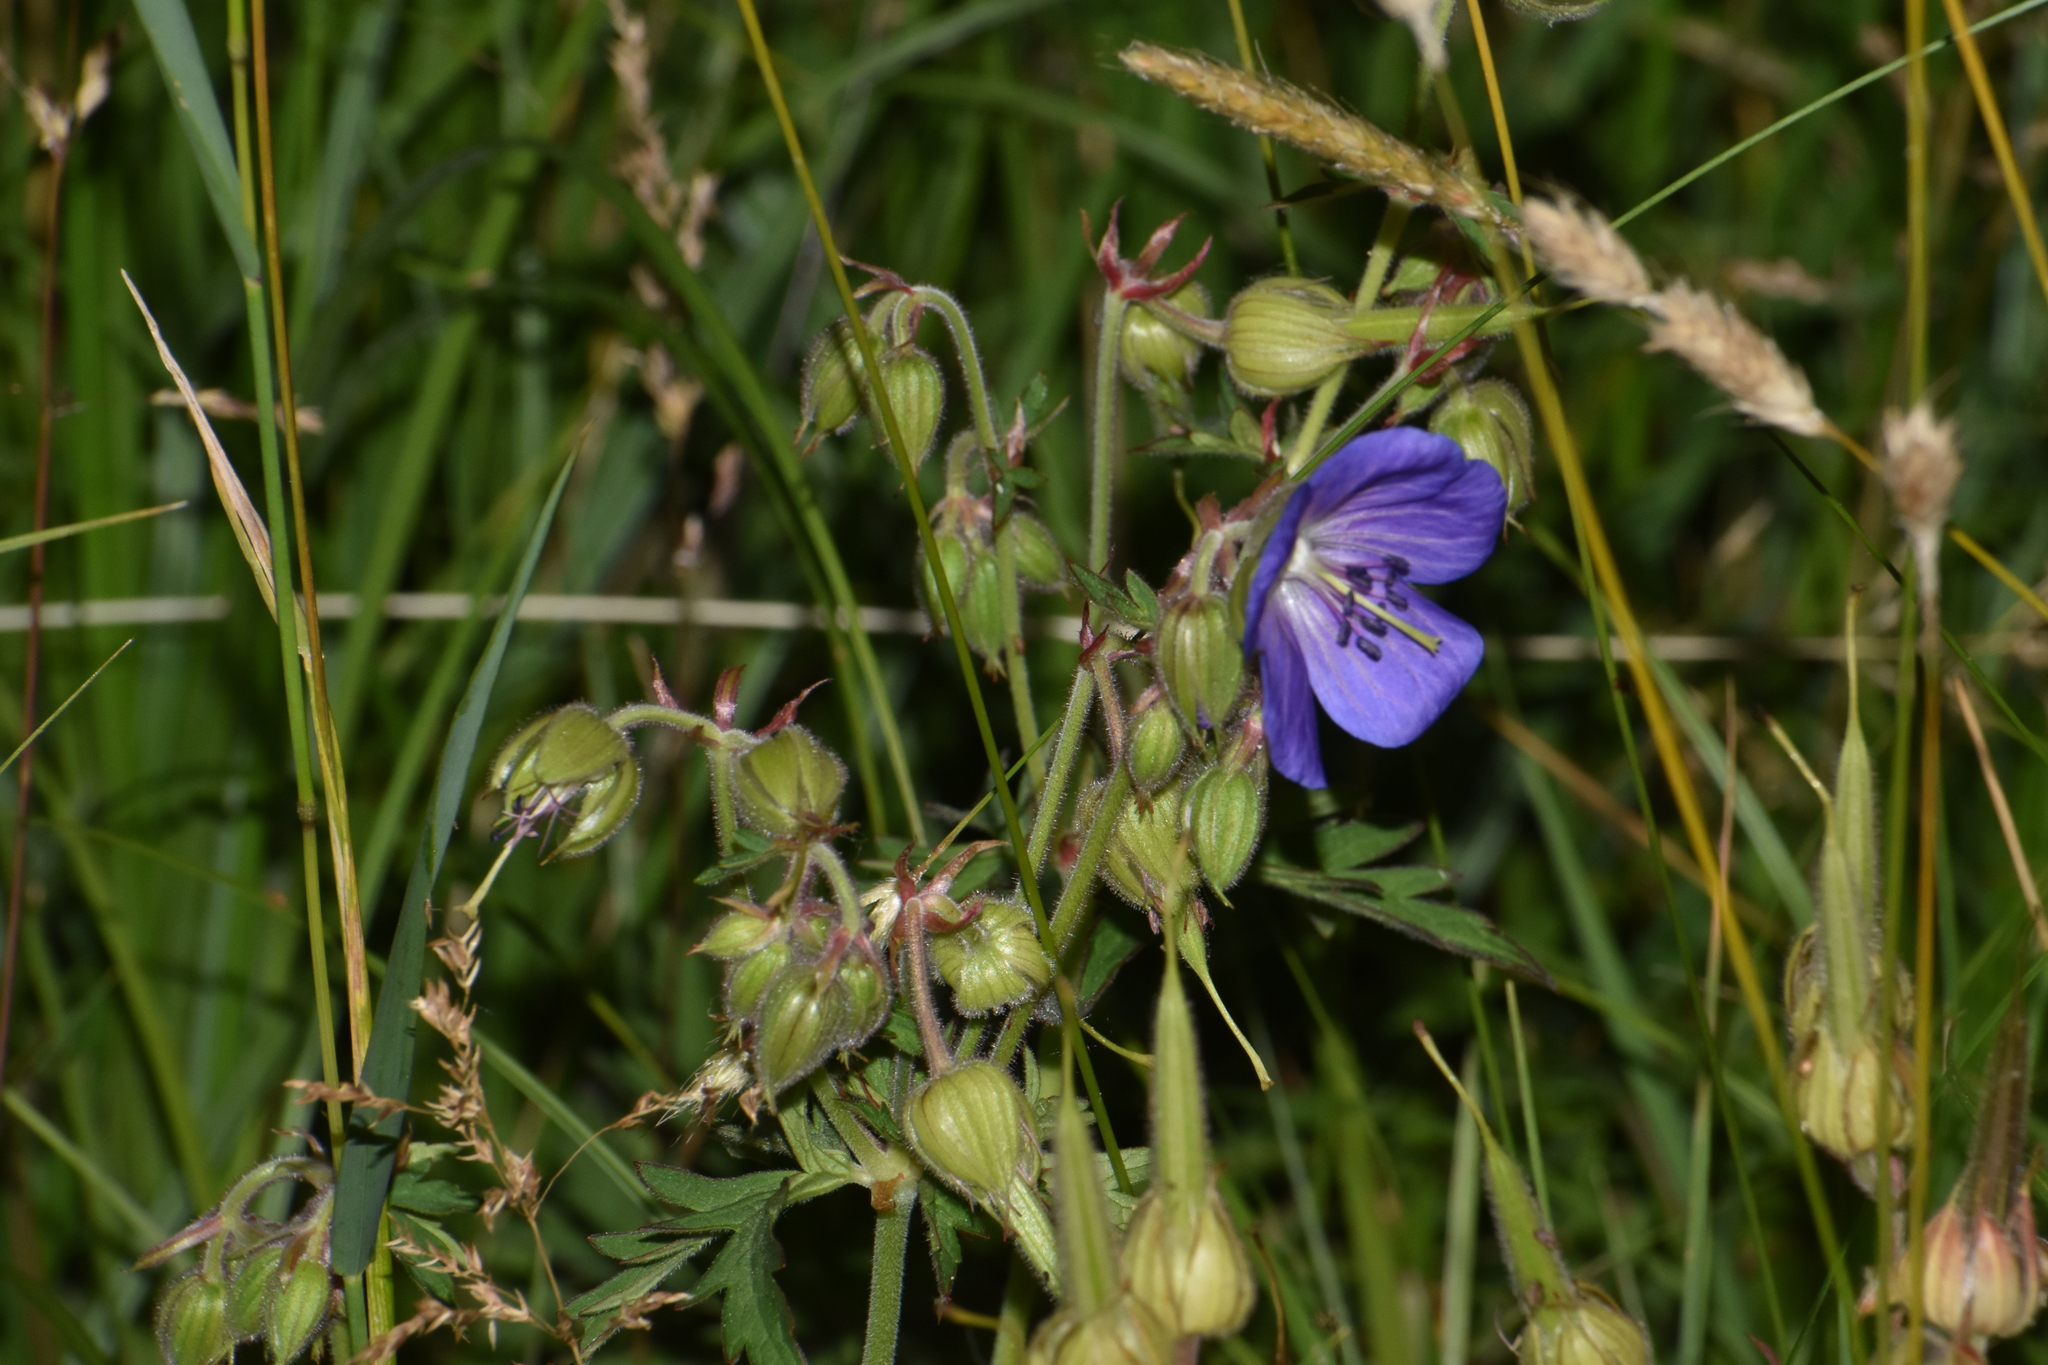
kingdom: Plantae
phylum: Tracheophyta
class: Magnoliopsida
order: Geraniales
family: Geraniaceae
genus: Geranium
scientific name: Geranium pratense
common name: Meadow crane's-bill
